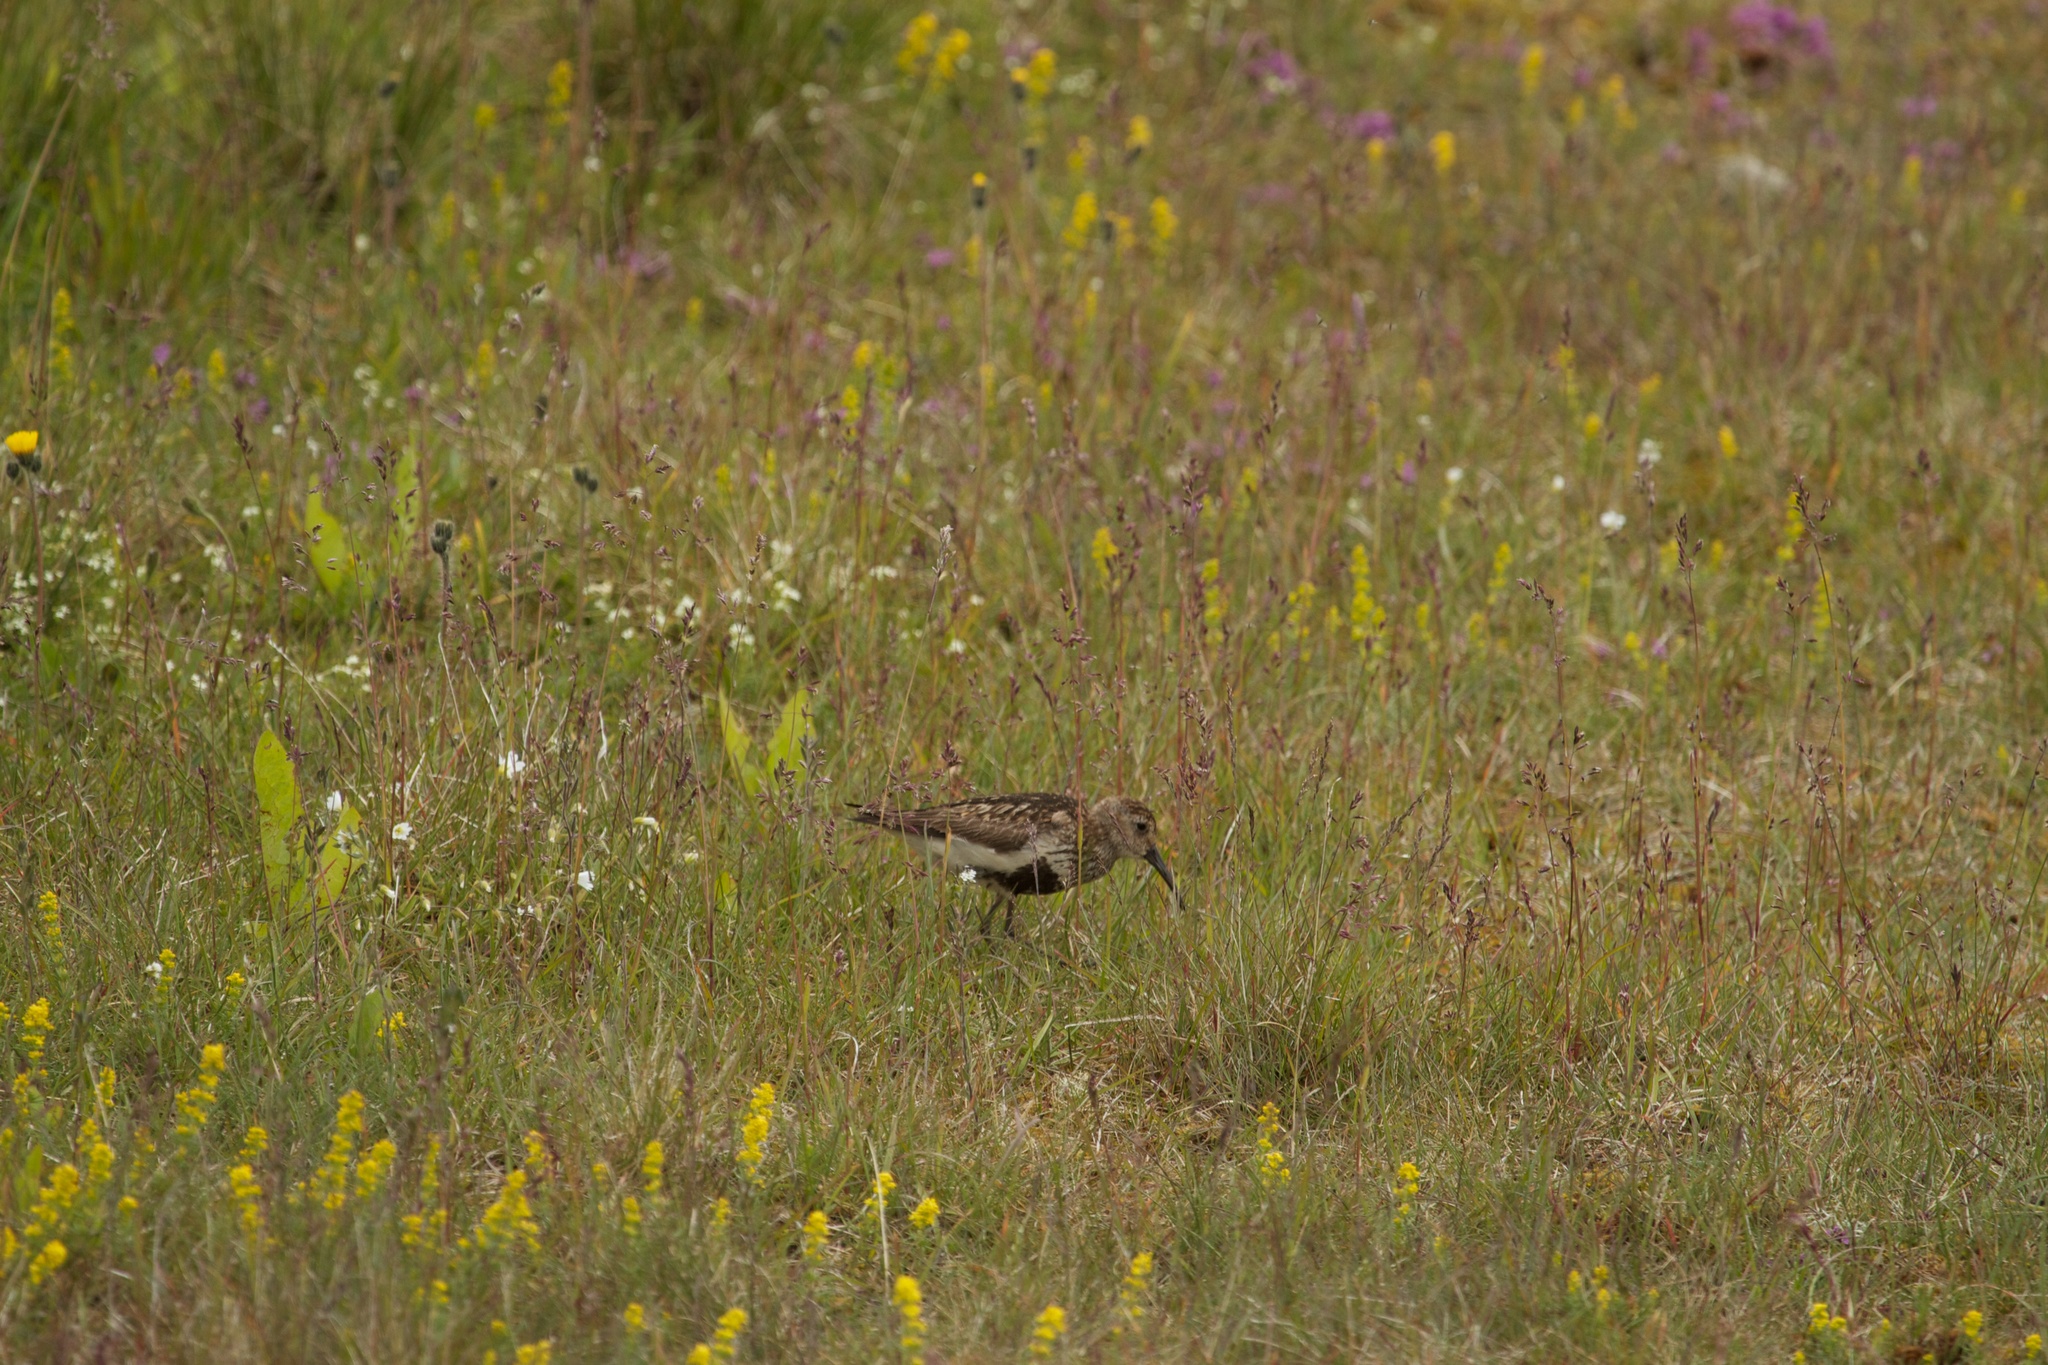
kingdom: Animalia
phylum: Chordata
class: Aves
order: Charadriiformes
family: Scolopacidae
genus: Calidris
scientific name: Calidris alpina
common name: Dunlin
